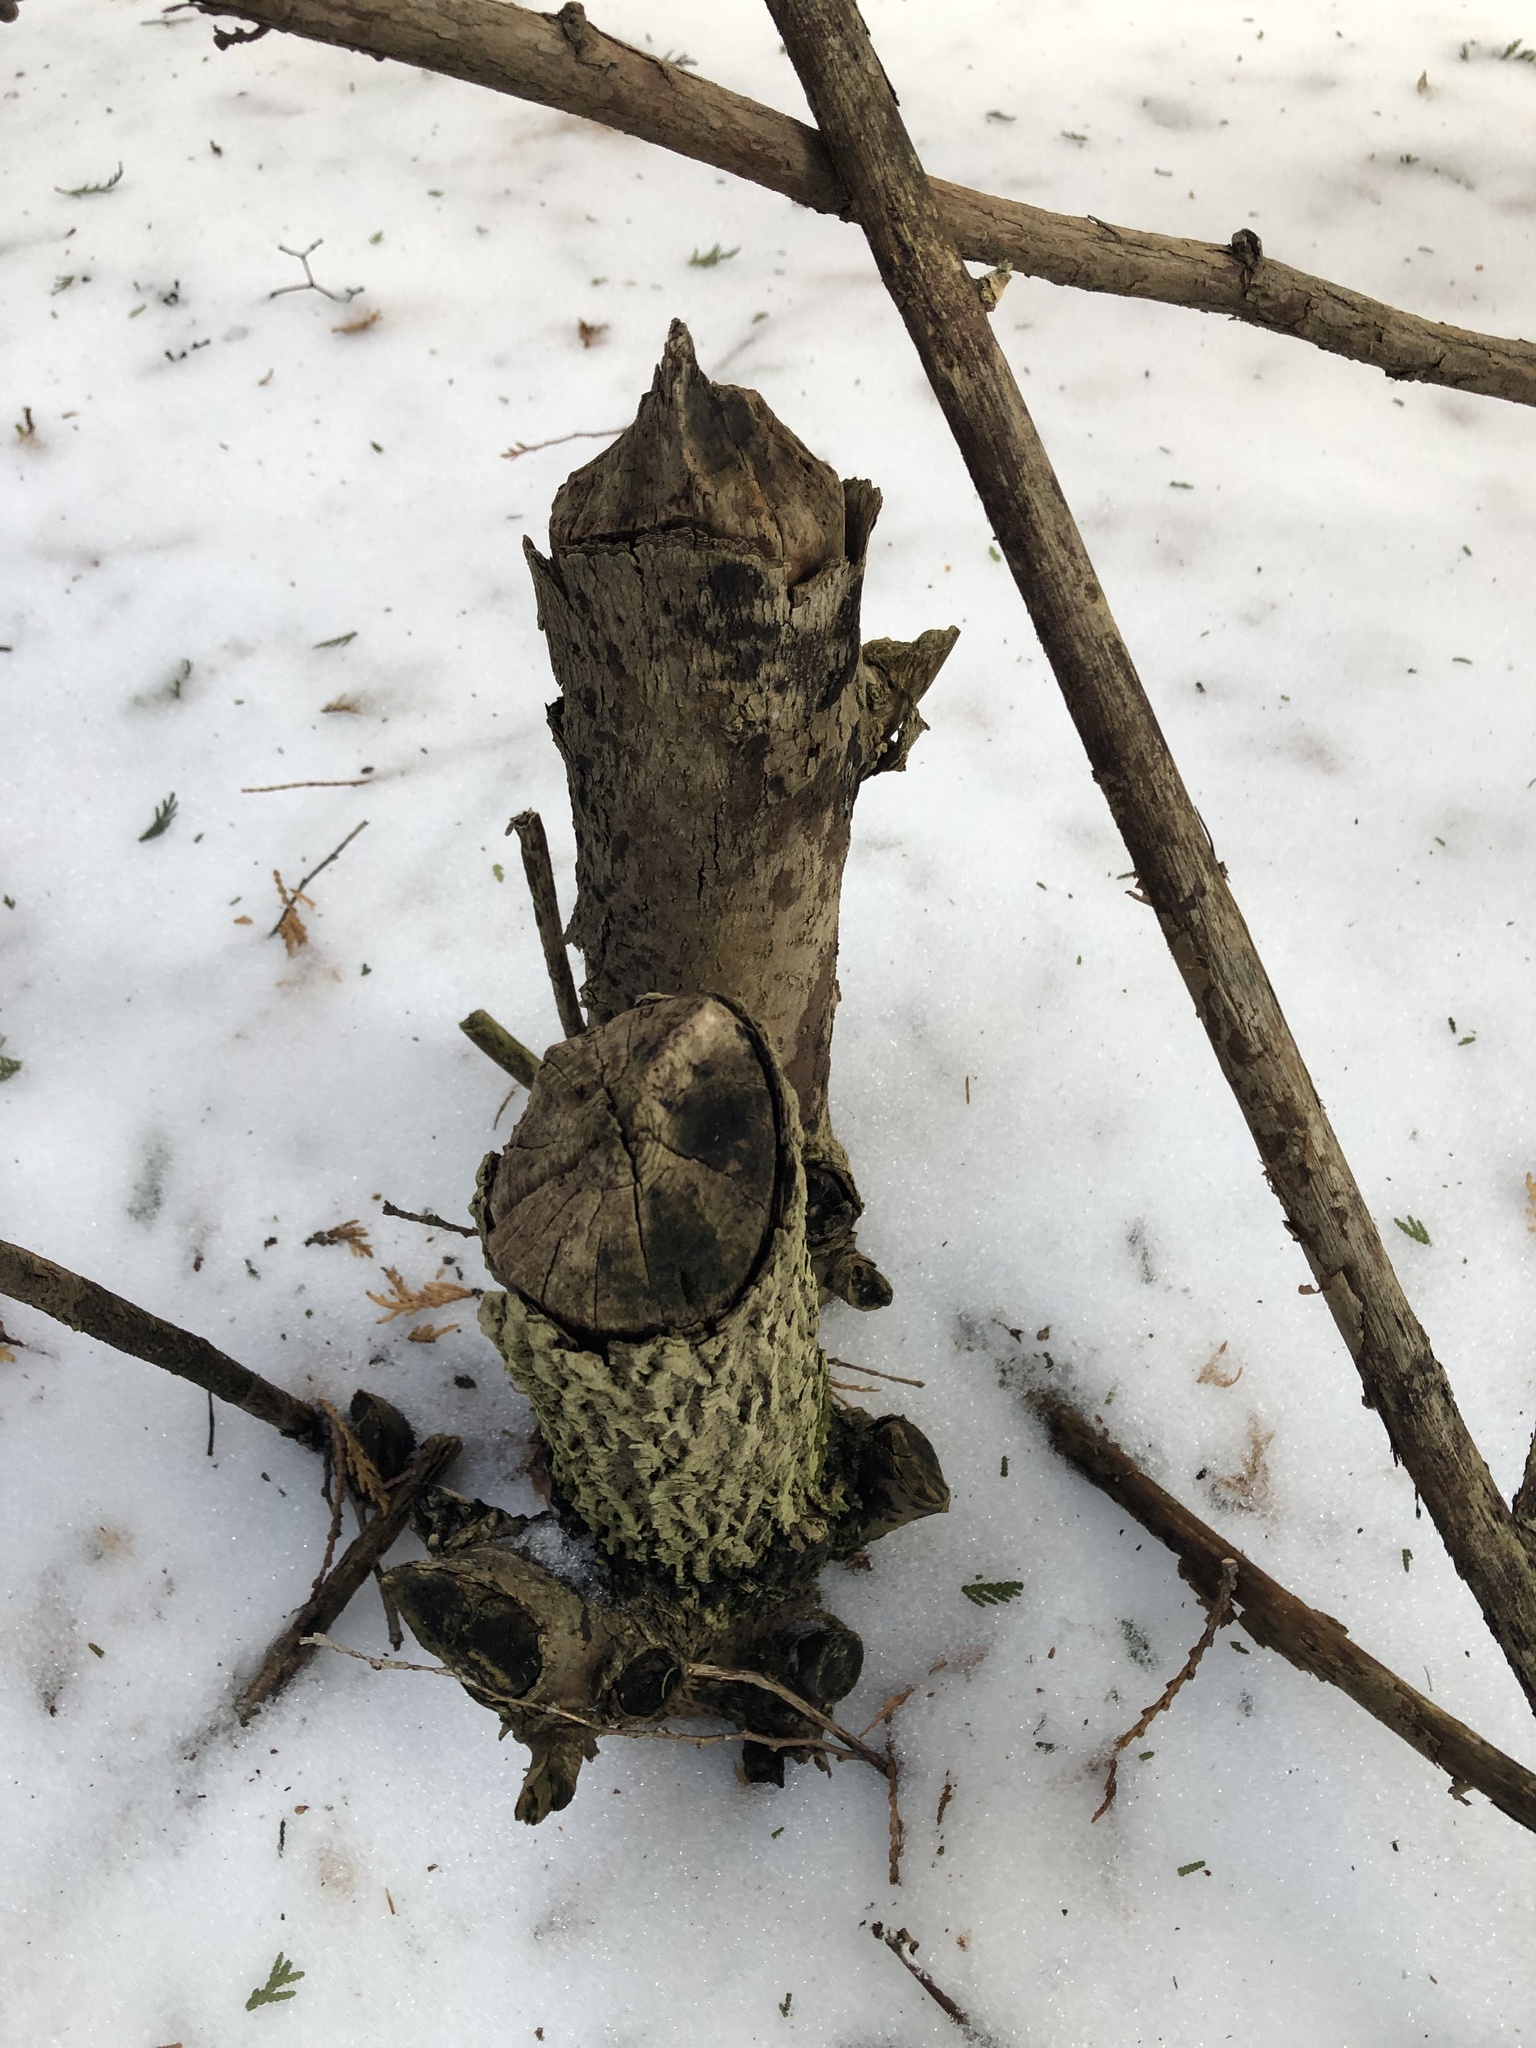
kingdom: Animalia
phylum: Chordata
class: Mammalia
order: Rodentia
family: Castoridae
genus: Castor
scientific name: Castor canadensis
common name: American beaver
